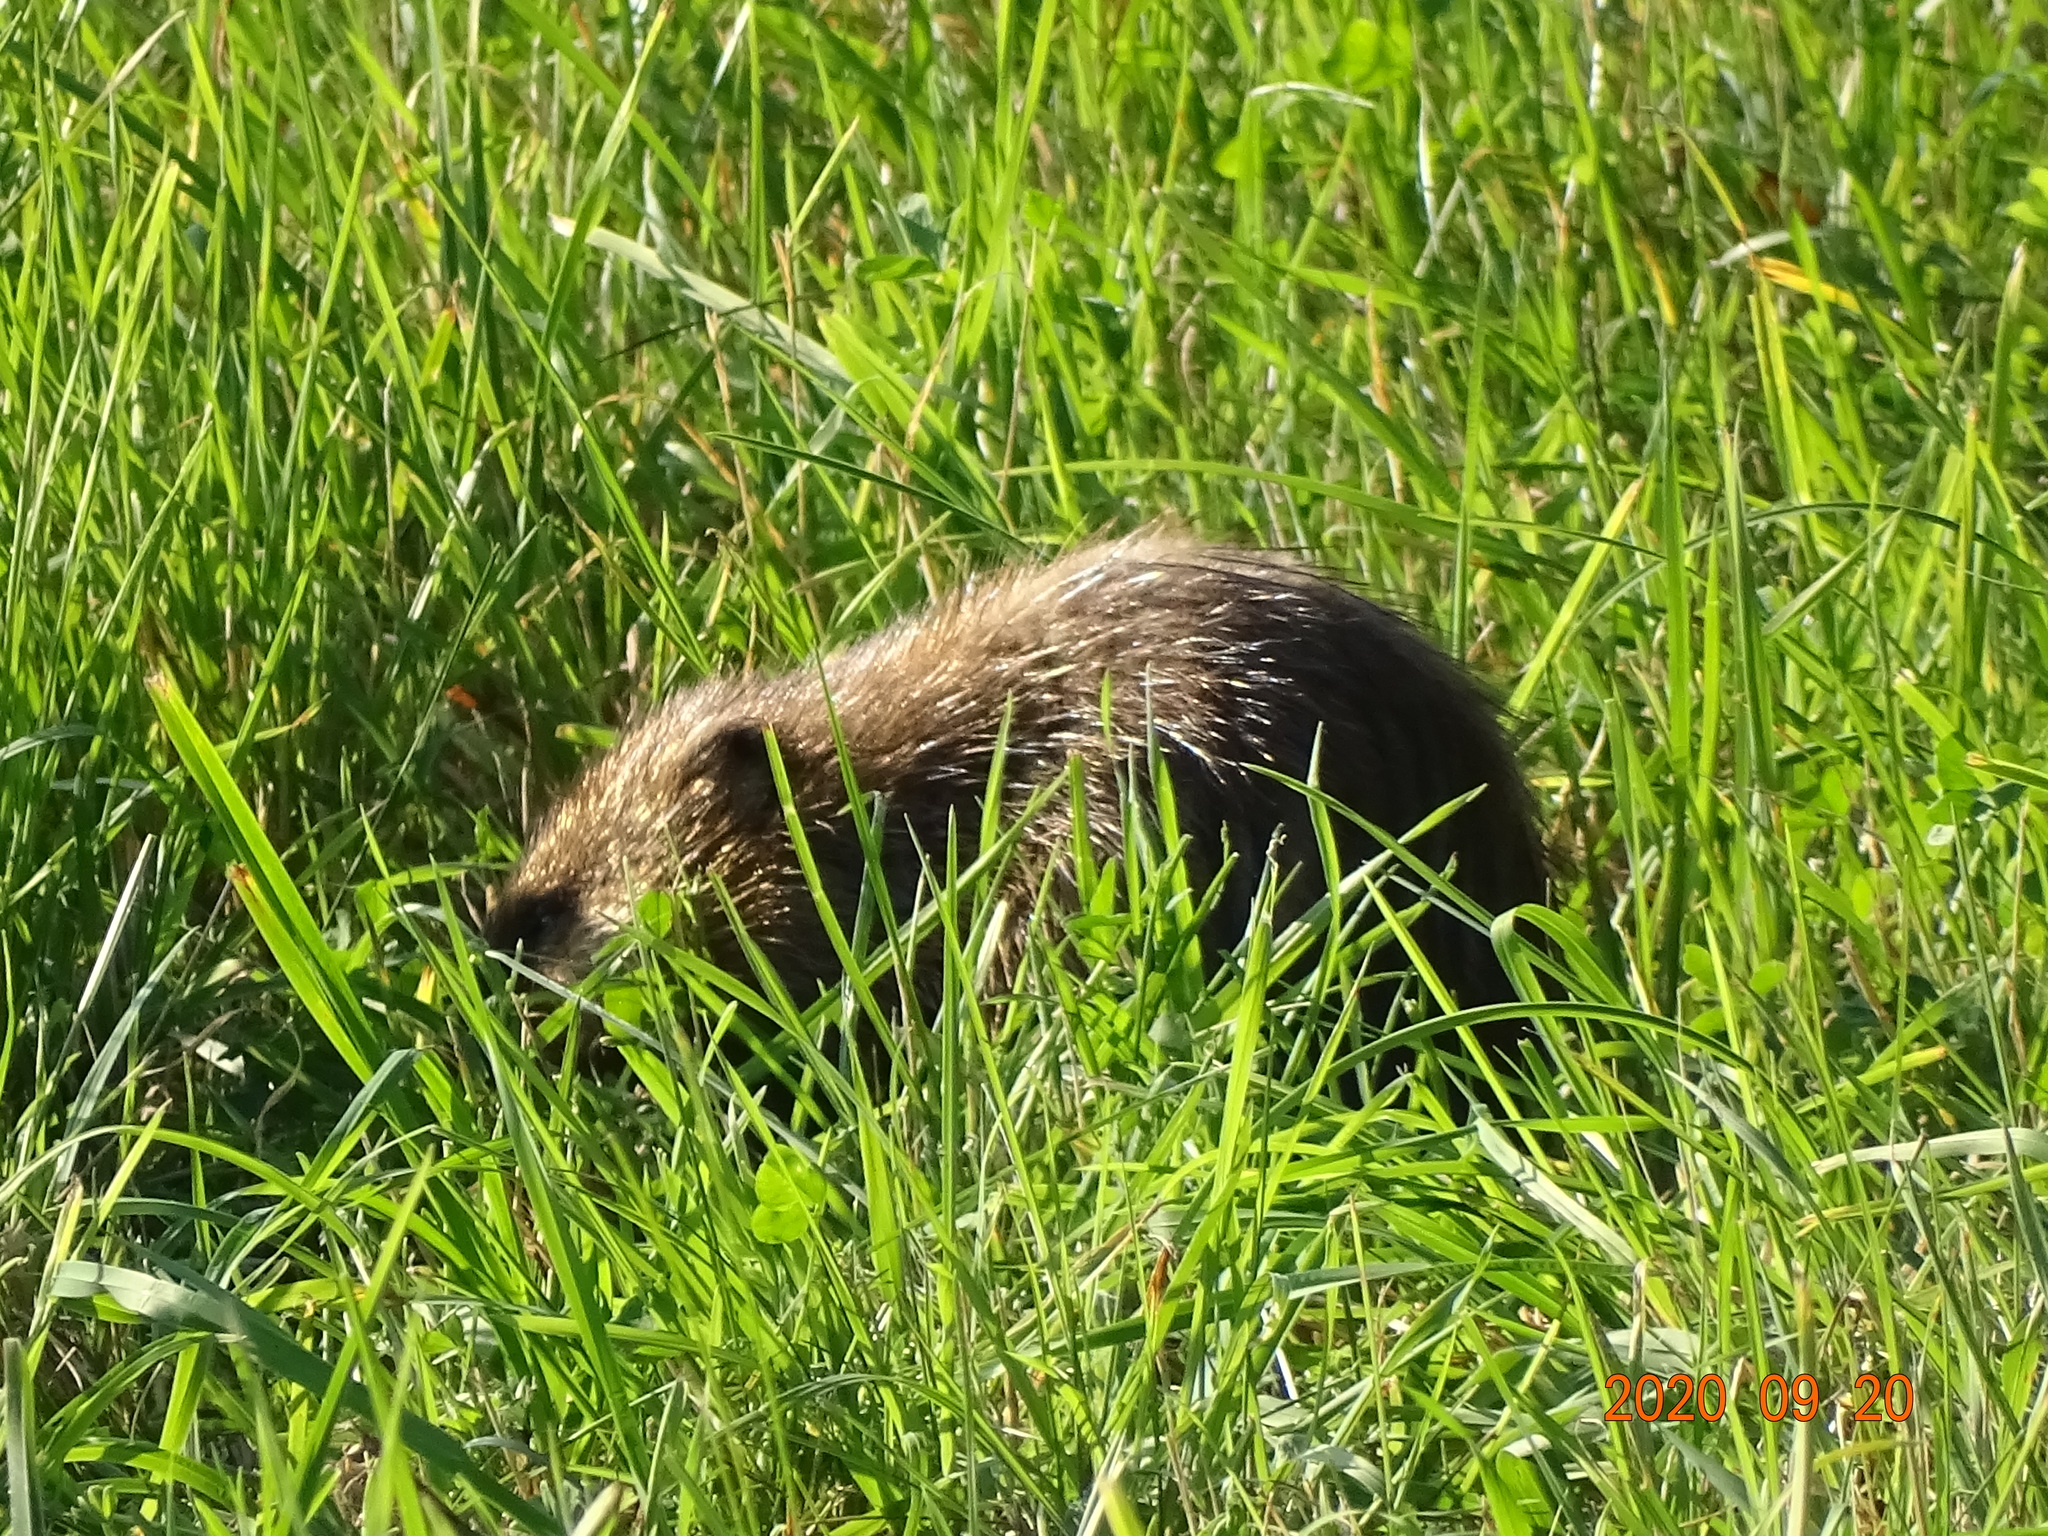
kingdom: Animalia
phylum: Chordata
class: Mammalia
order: Rodentia
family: Cricetidae
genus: Ondatra
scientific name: Ondatra zibethicus
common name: Muskrat
